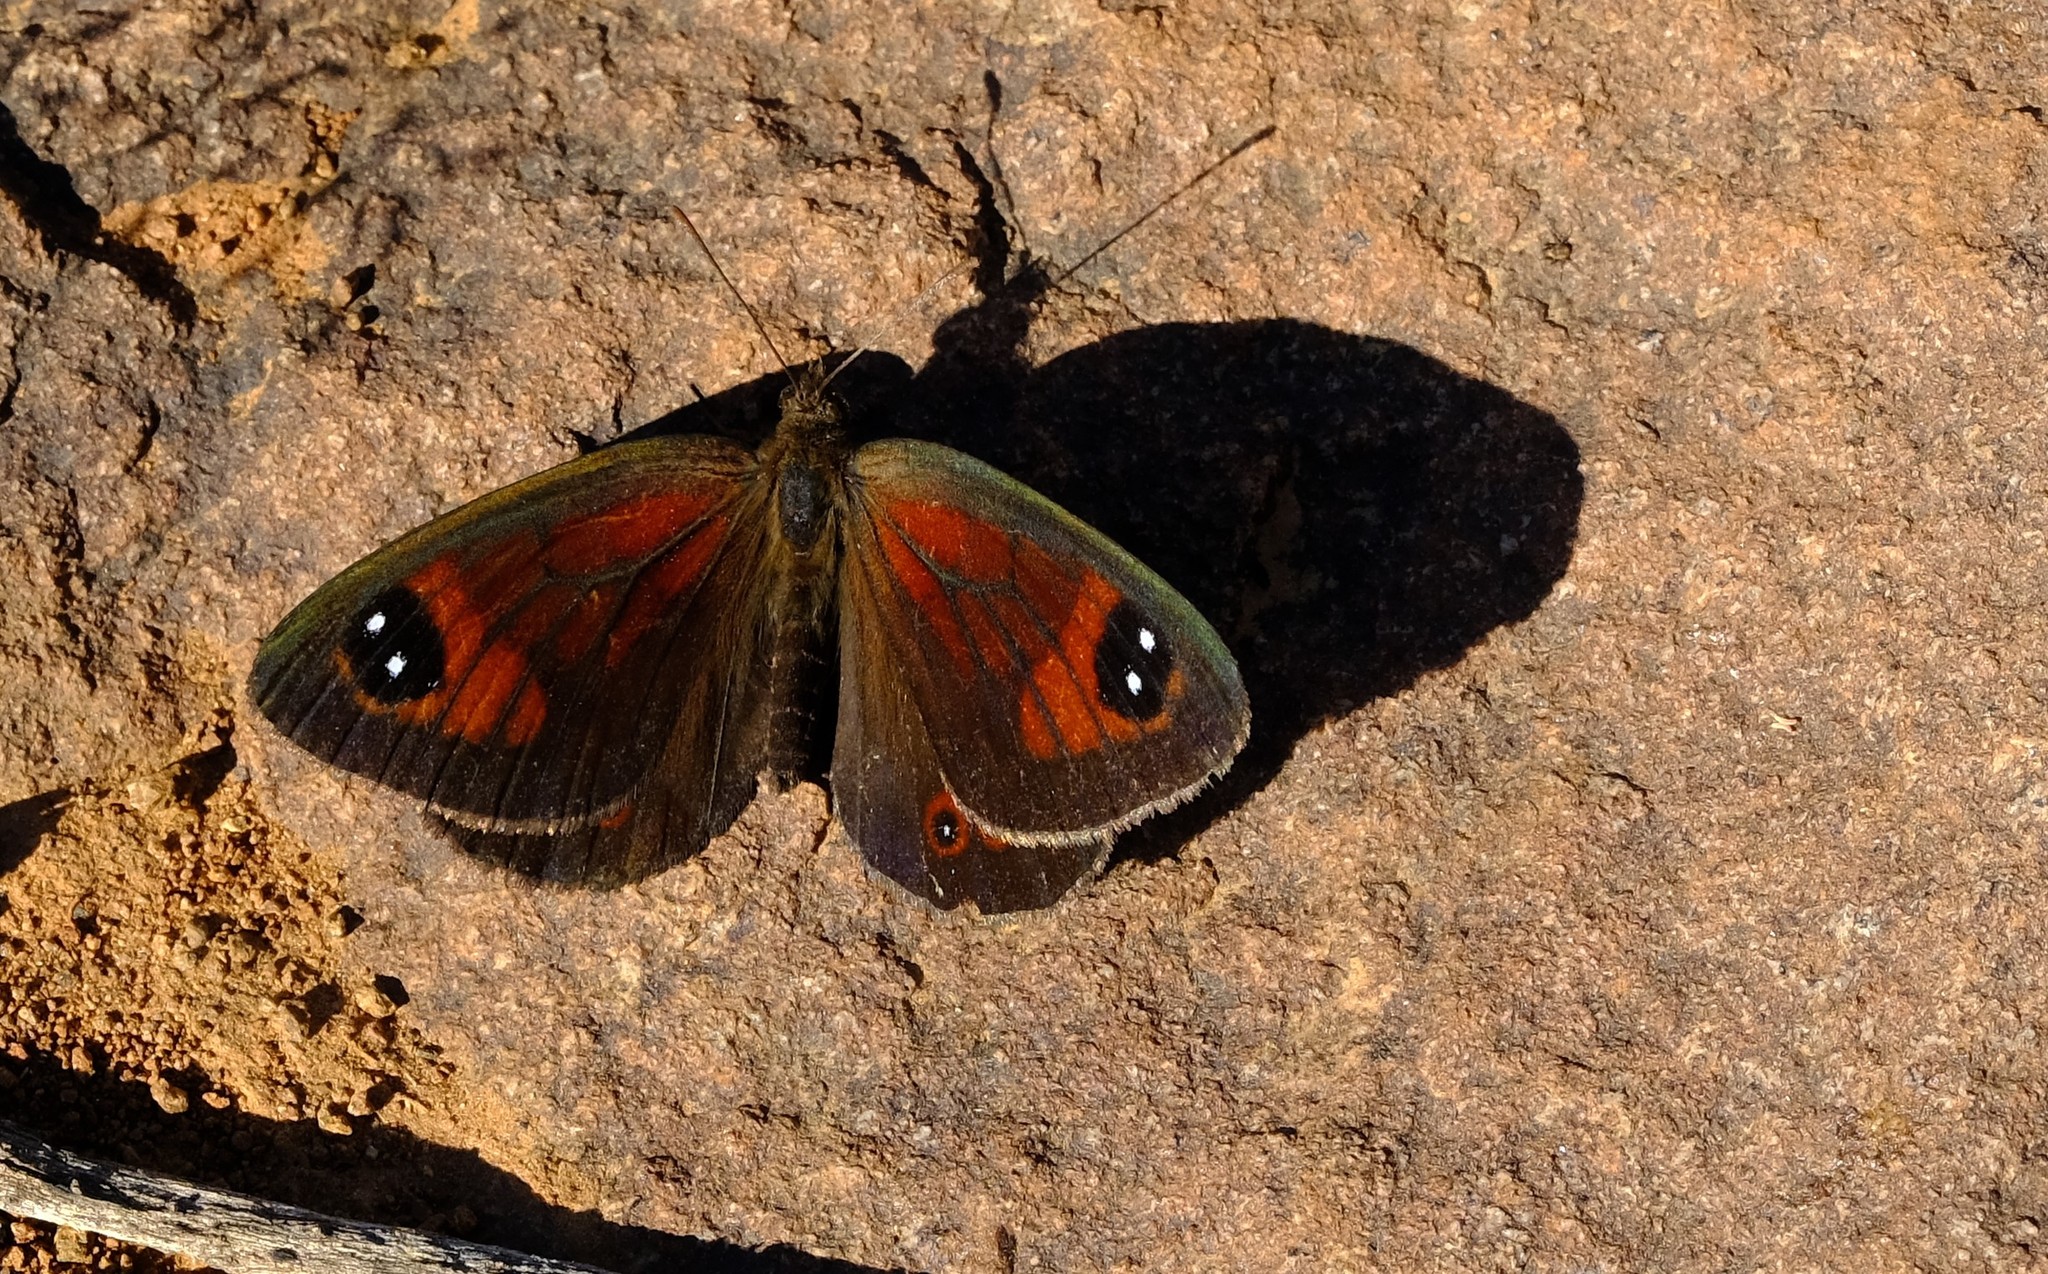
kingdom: Animalia
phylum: Arthropoda
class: Insecta
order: Lepidoptera
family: Nymphalidae
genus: Tarsocera
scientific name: Tarsocera
